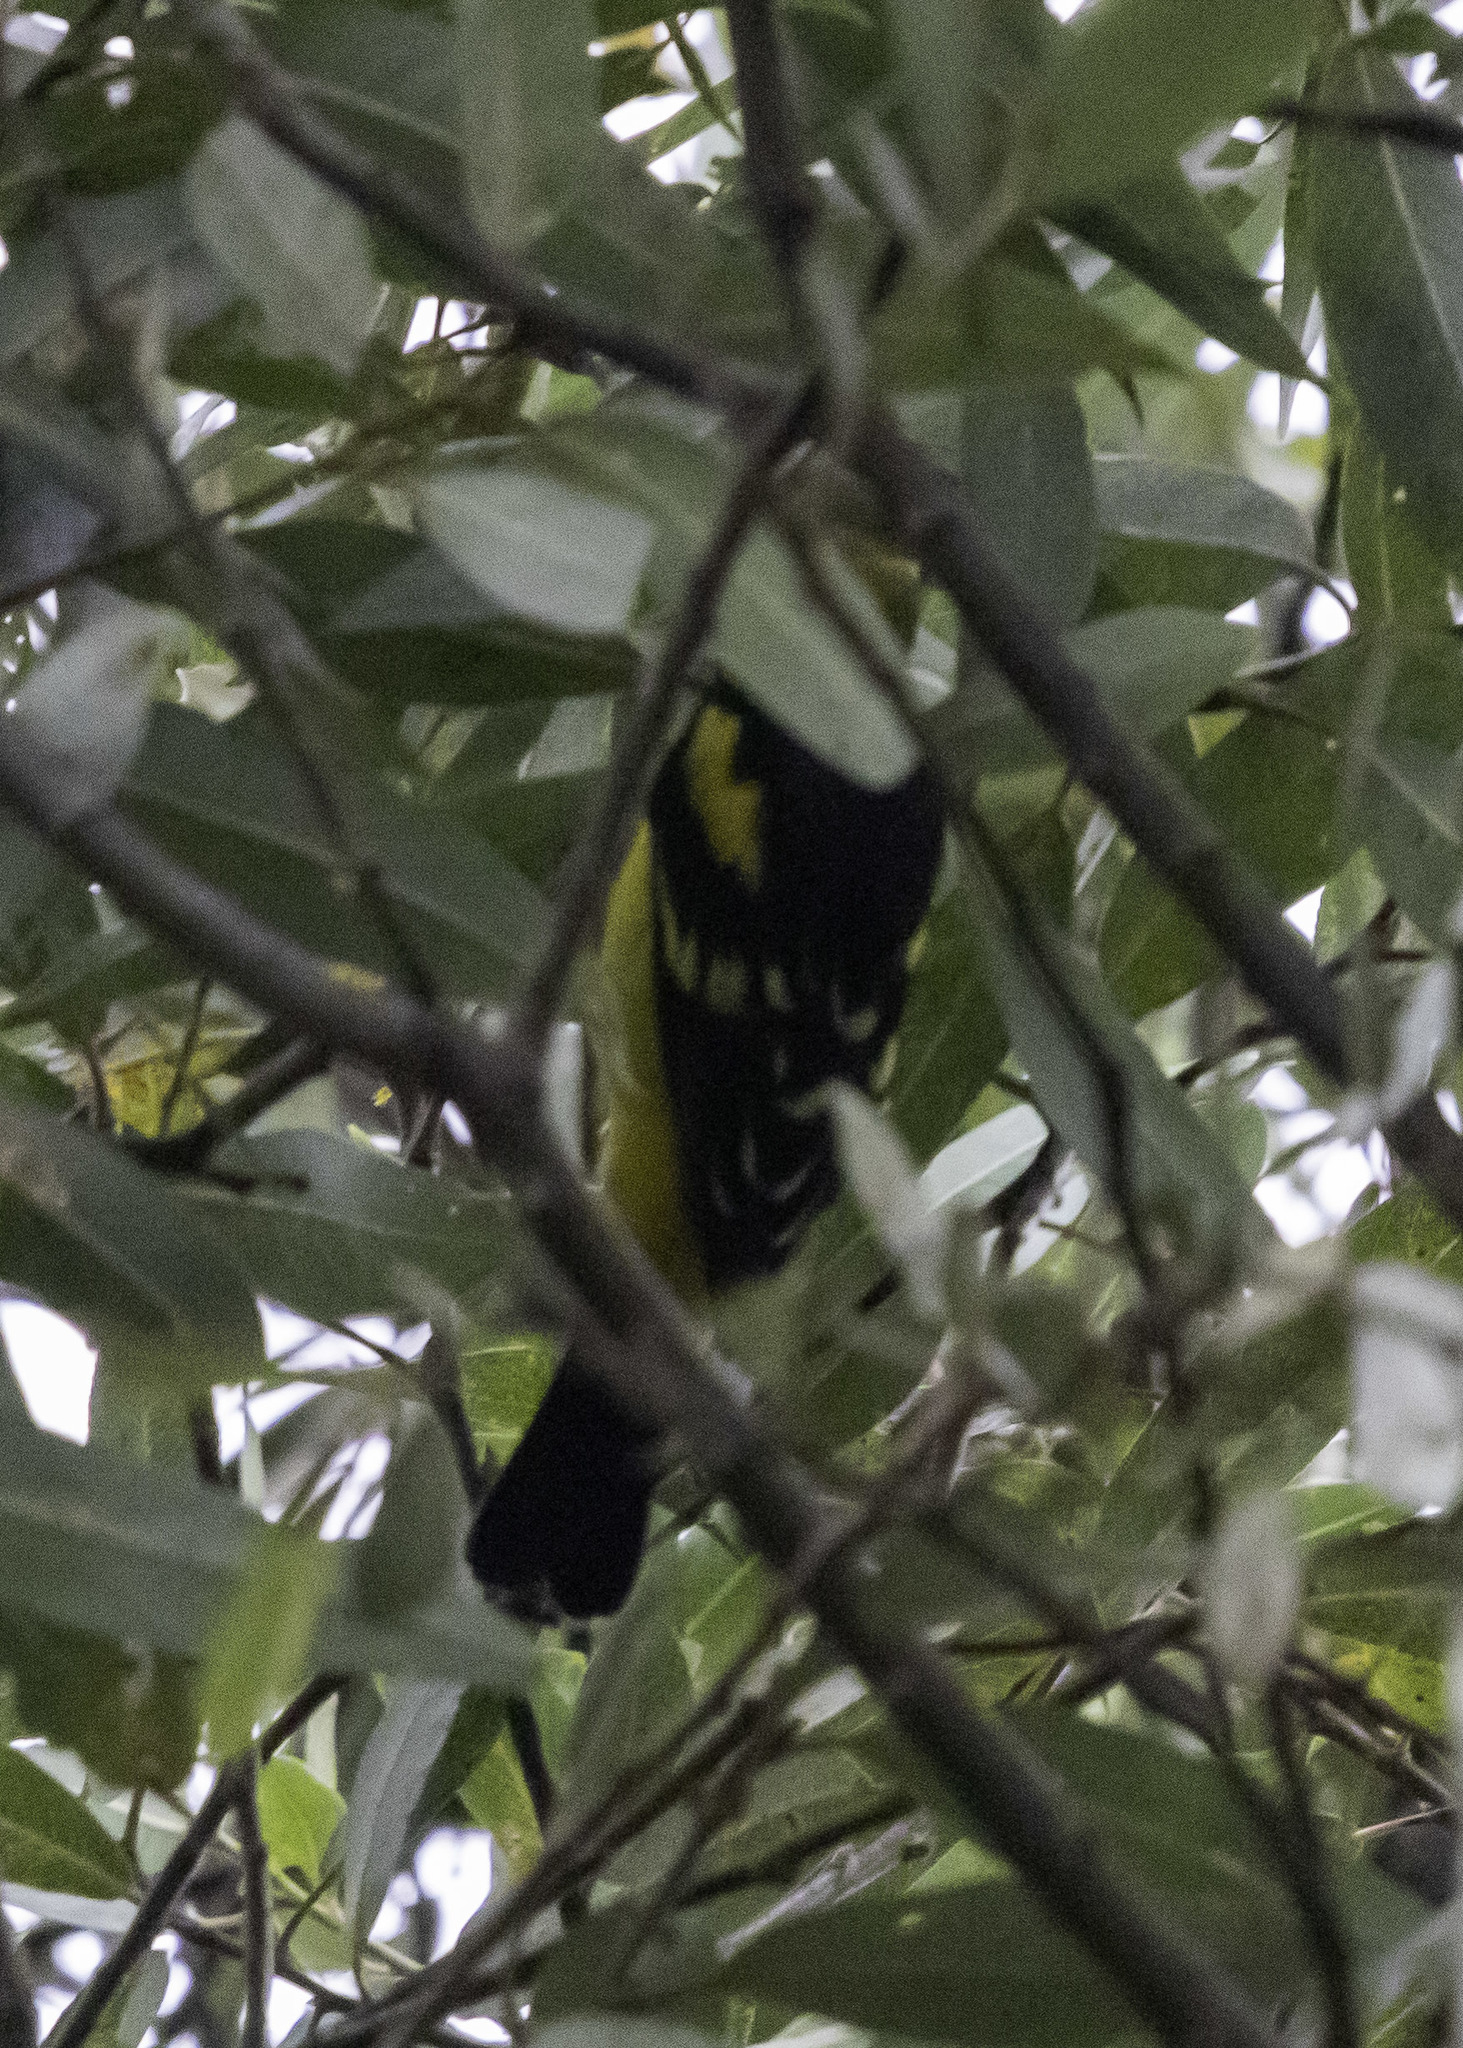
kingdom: Animalia
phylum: Chordata
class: Aves
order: Passeriformes
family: Cardinalidae
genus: Piranga
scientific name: Piranga ludoviciana
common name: Western tanager
